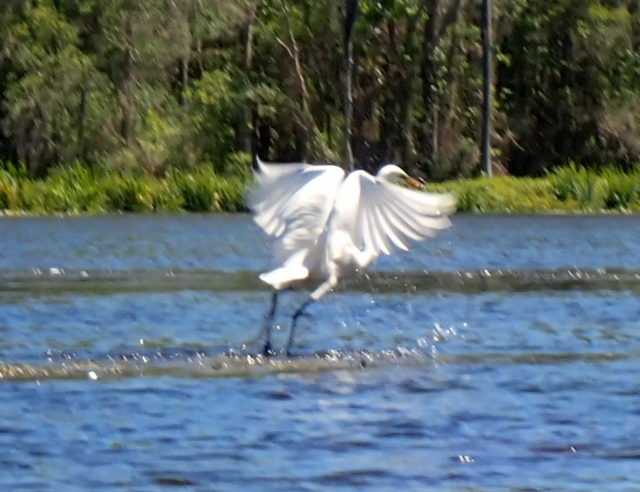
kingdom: Animalia
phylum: Chordata
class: Aves
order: Pelecaniformes
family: Ardeidae
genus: Ardea
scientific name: Ardea alba
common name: Great egret
